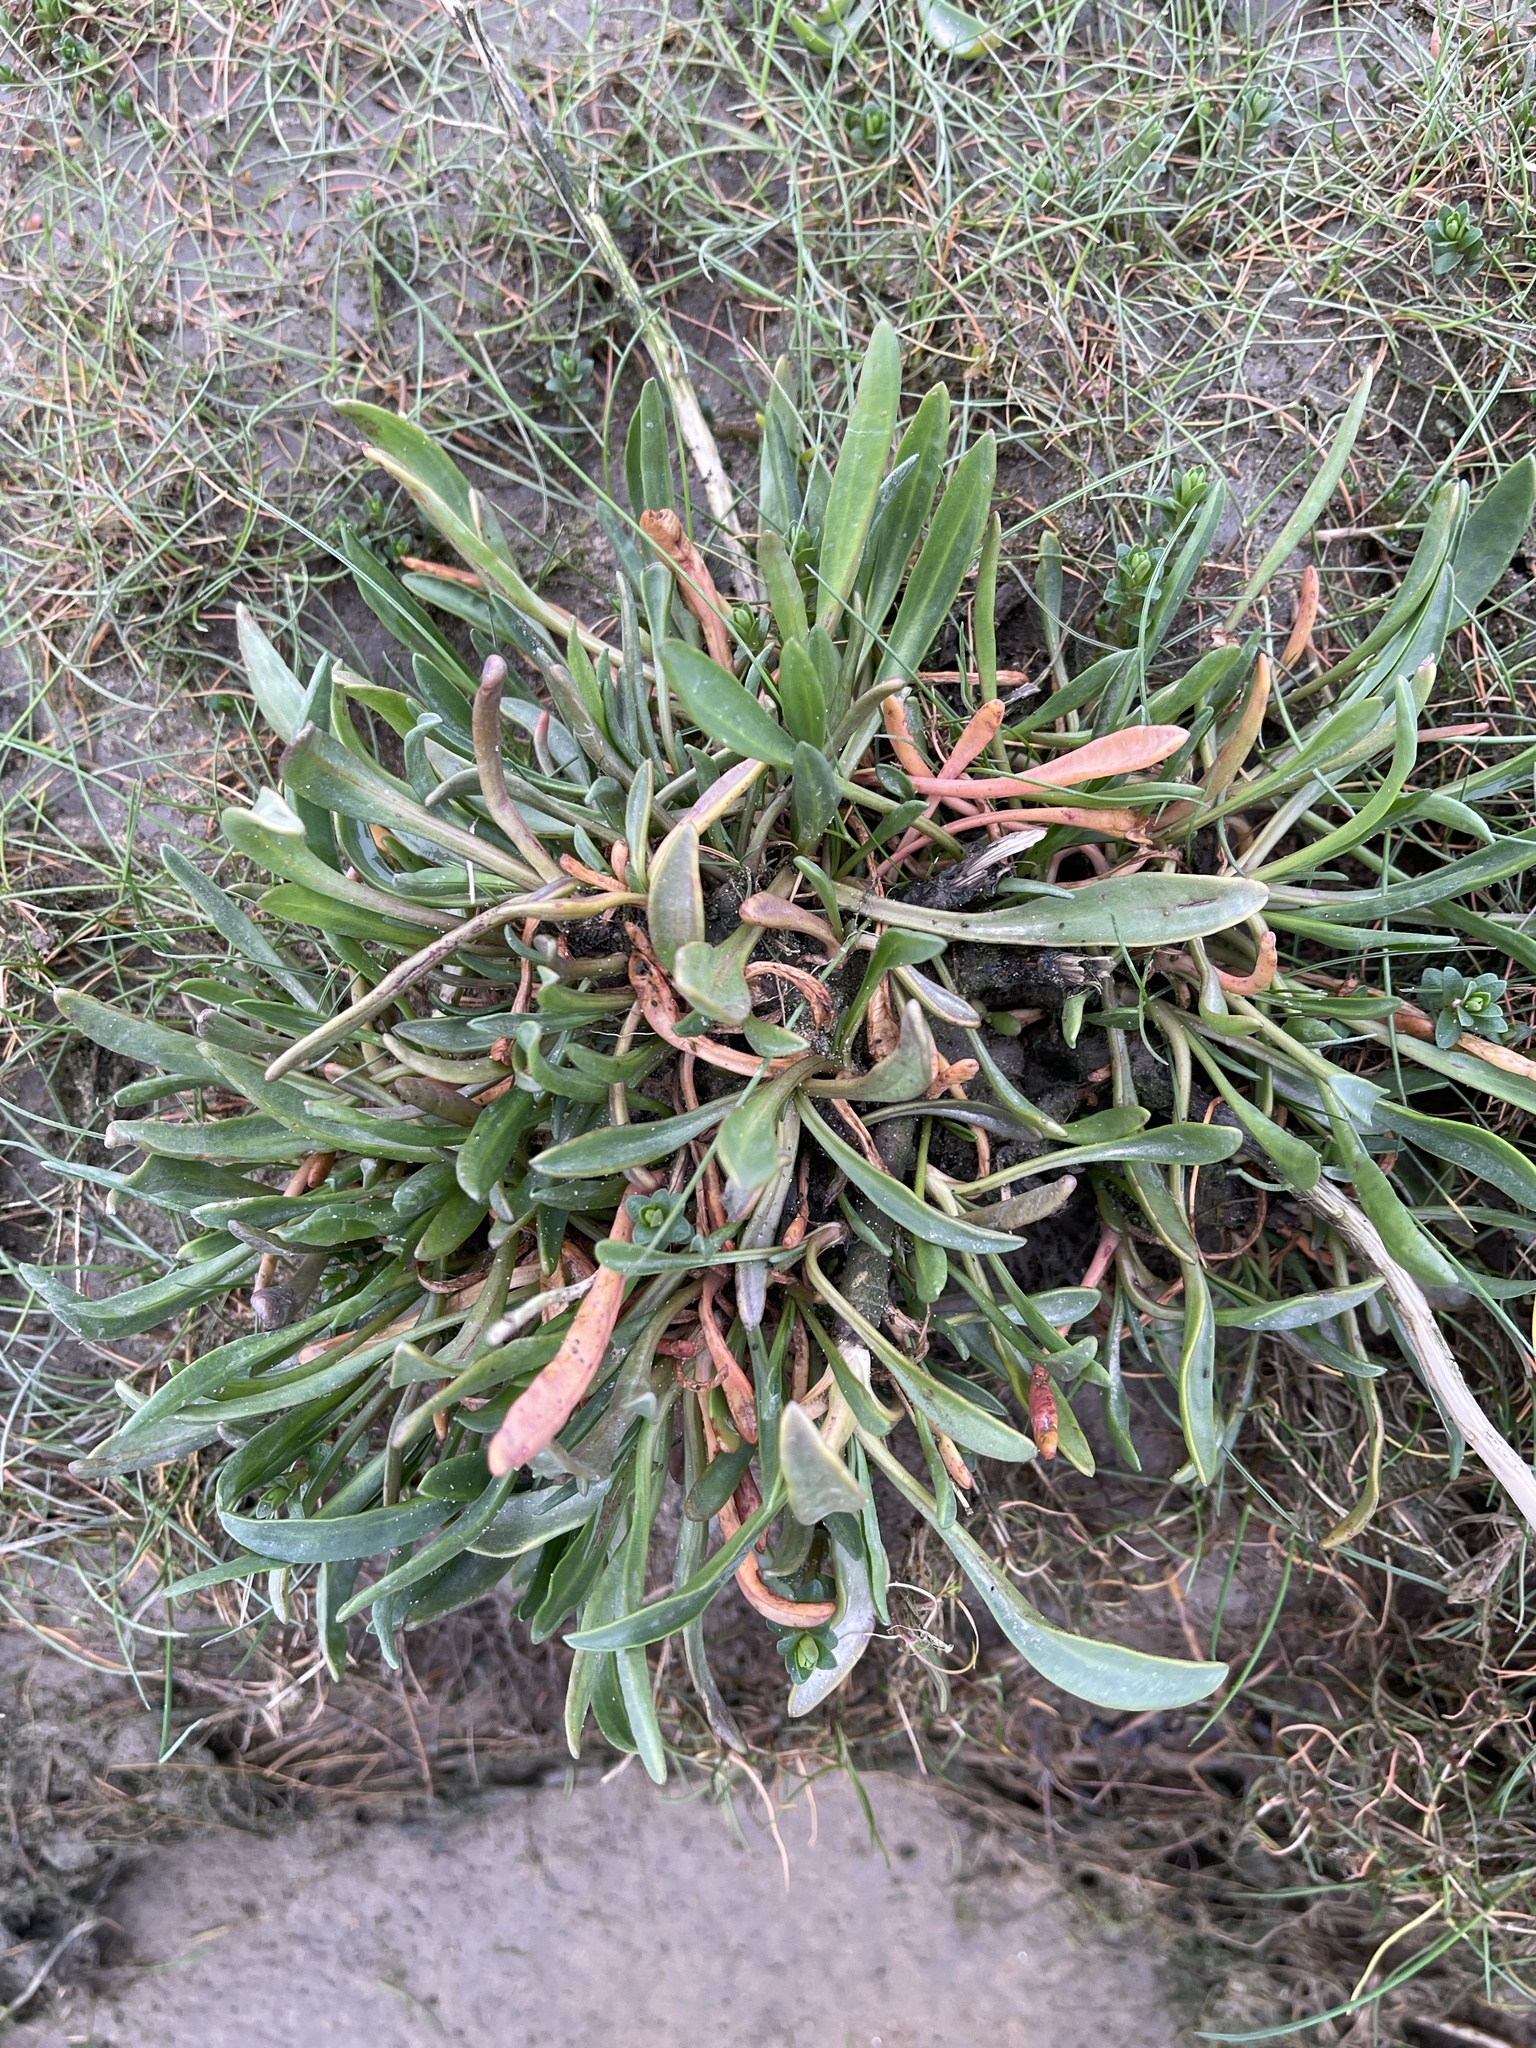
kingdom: Plantae
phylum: Tracheophyta
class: Magnoliopsida
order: Asterales
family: Asteraceae
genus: Tripolium
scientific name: Tripolium pannonicum
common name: Sea aster
